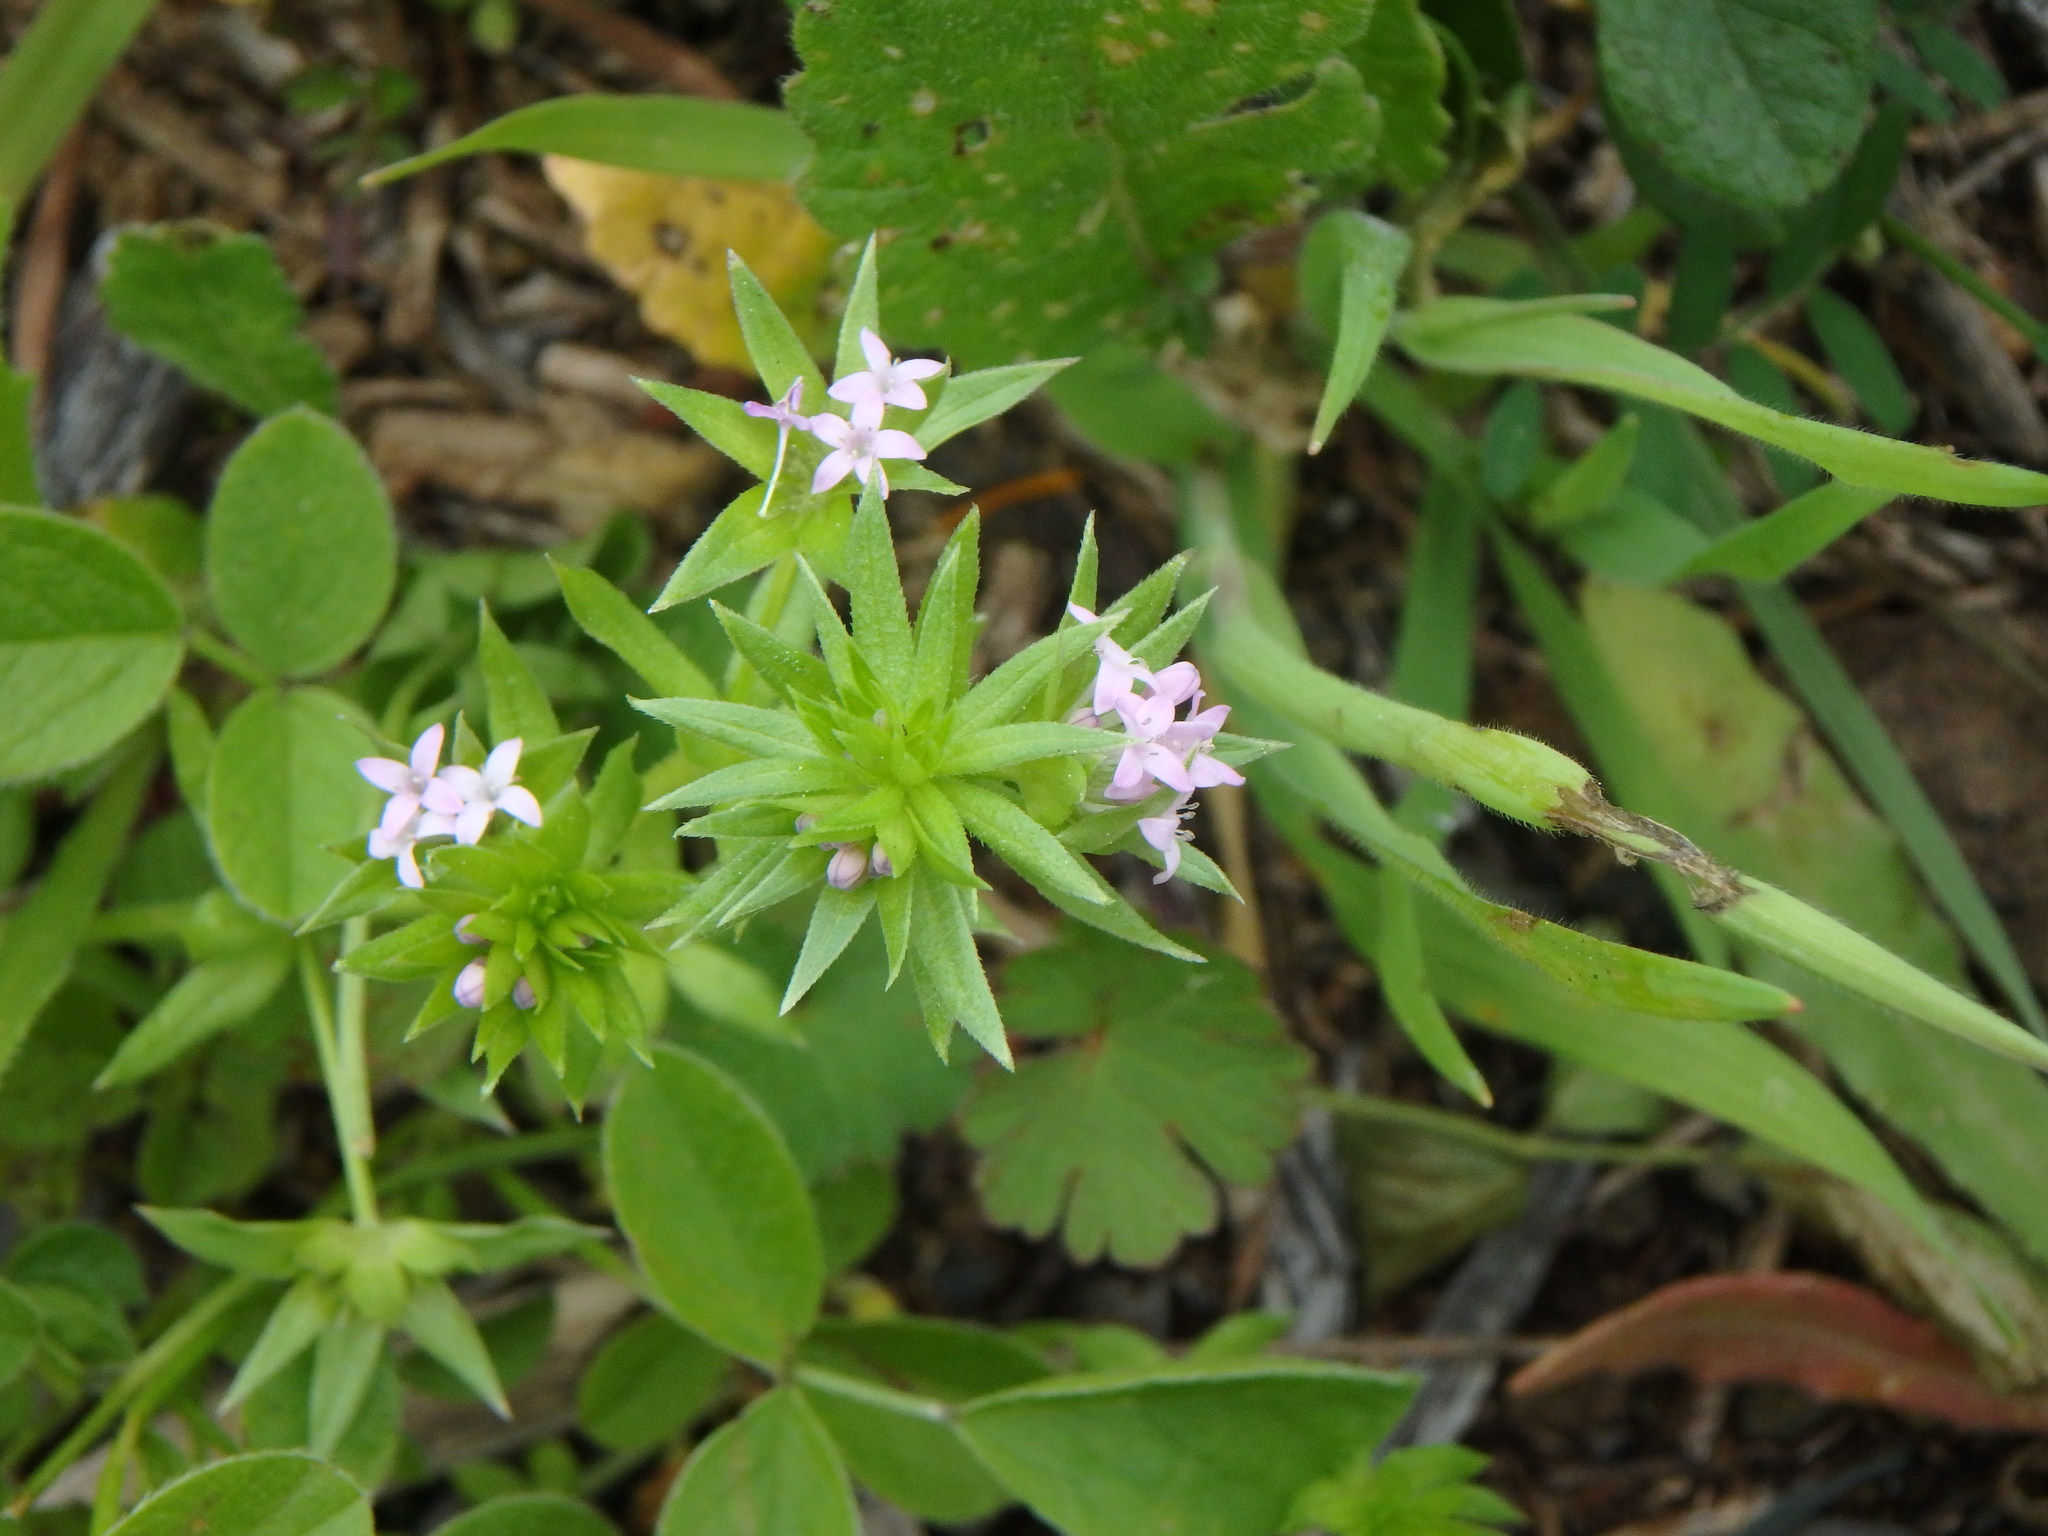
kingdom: Plantae
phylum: Tracheophyta
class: Magnoliopsida
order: Gentianales
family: Rubiaceae
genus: Sherardia
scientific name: Sherardia arvensis
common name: Field madder
